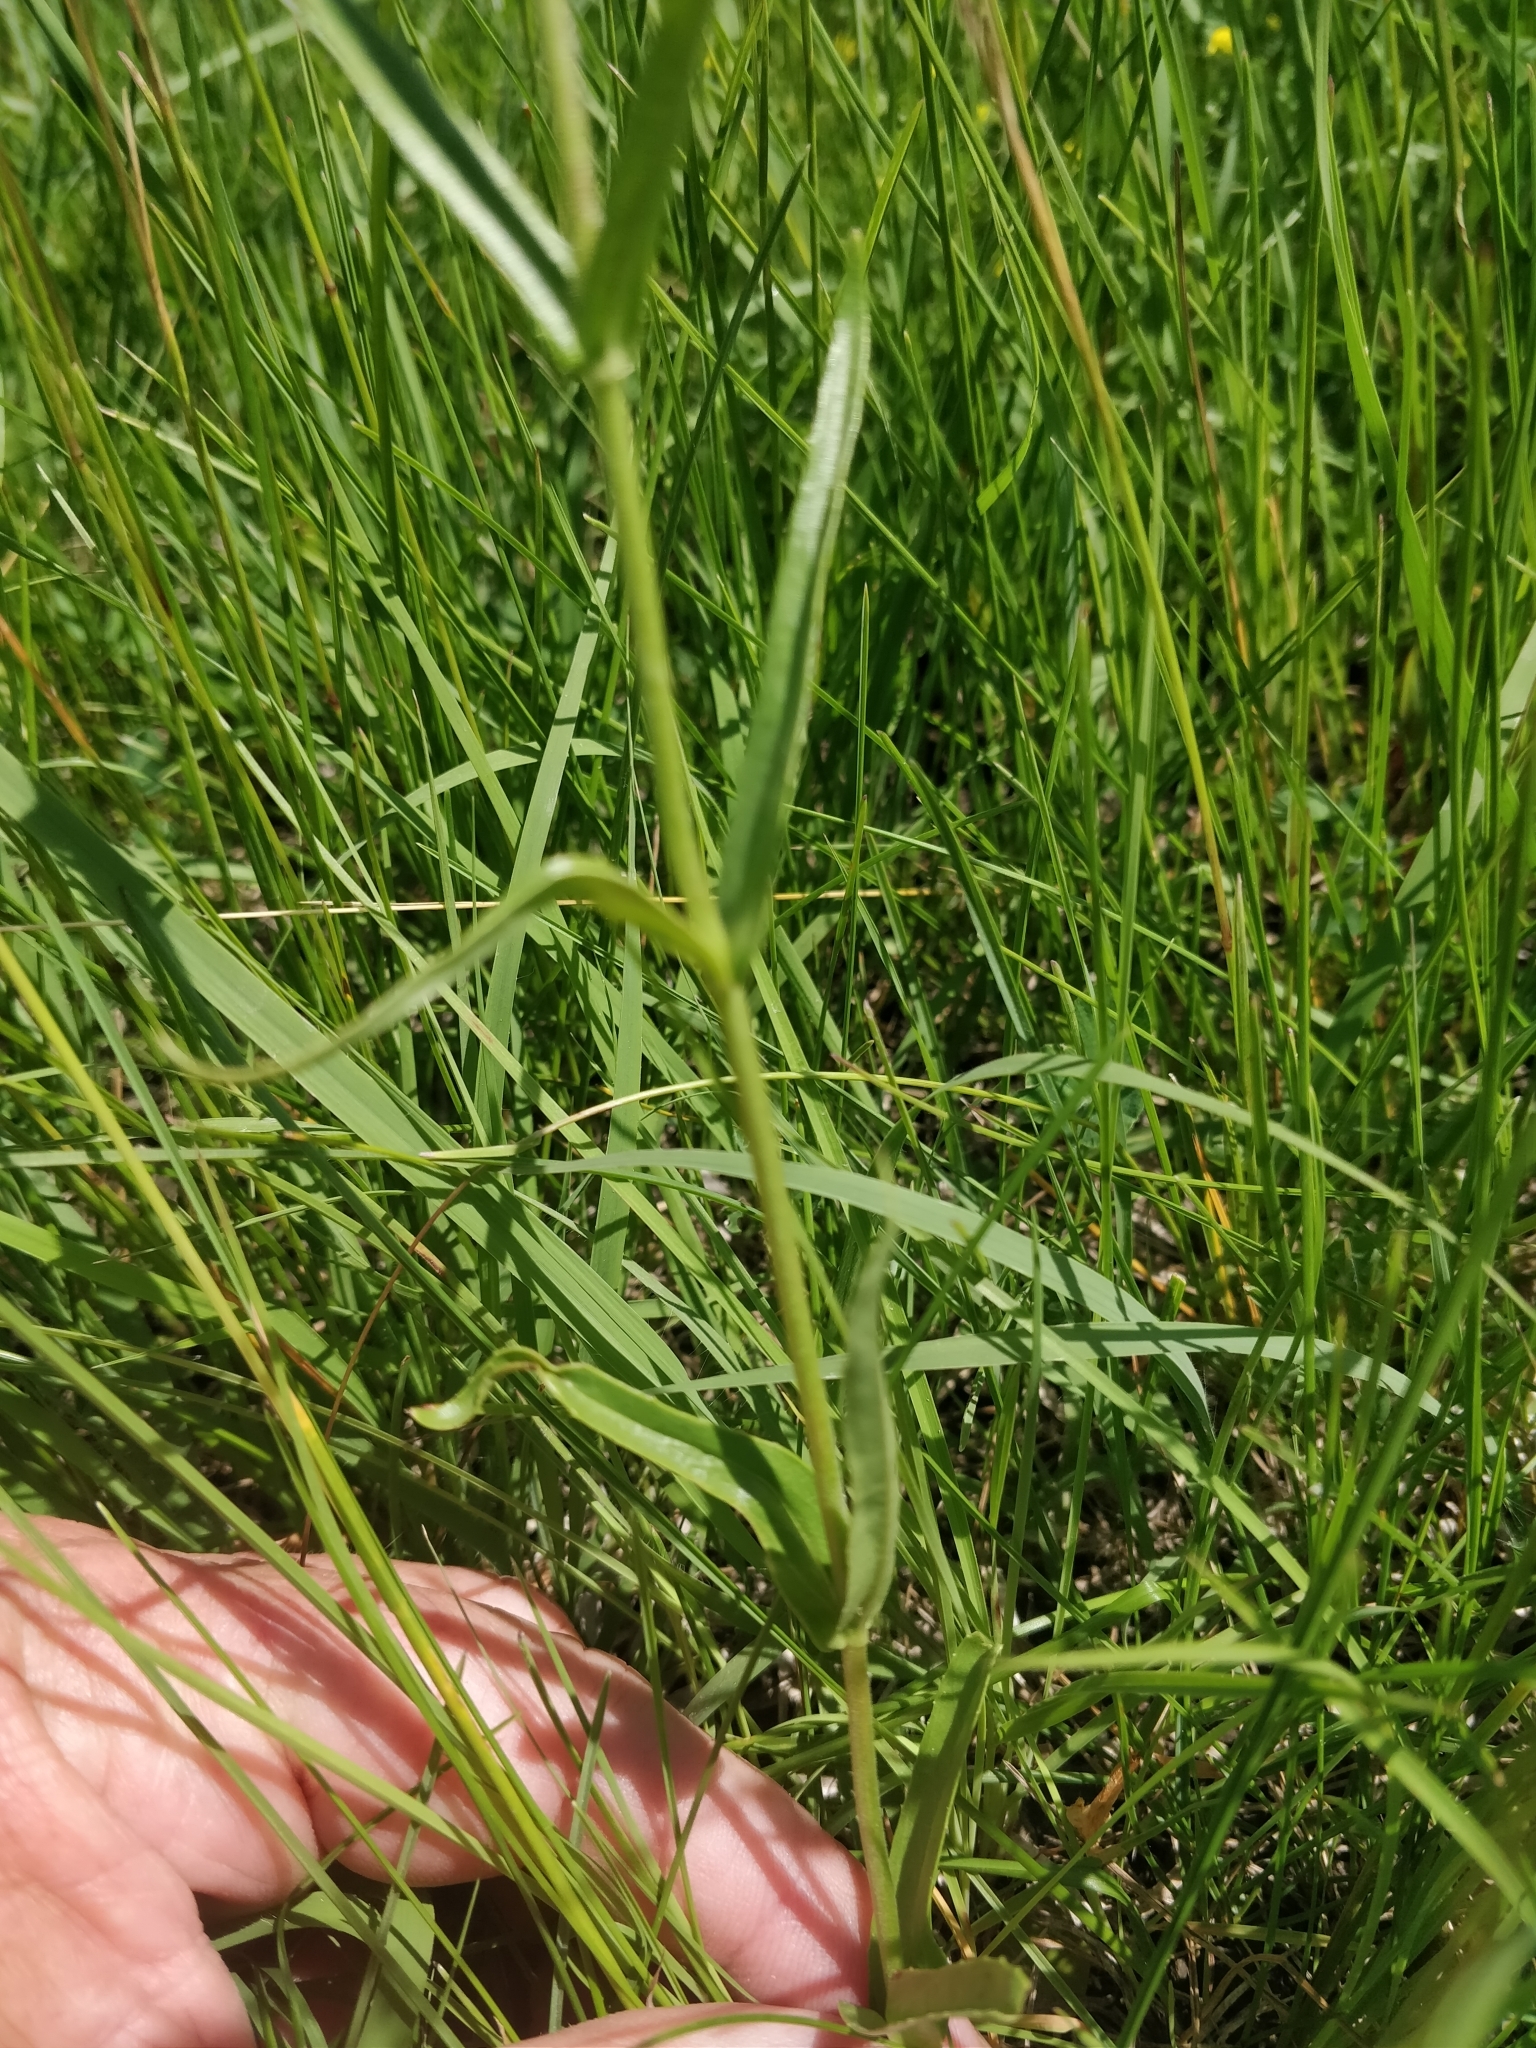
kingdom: Plantae
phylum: Tracheophyta
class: Magnoliopsida
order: Lamiales
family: Plantaginaceae
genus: Penstemon
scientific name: Penstemon gracilis
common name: Slender beardtongue
